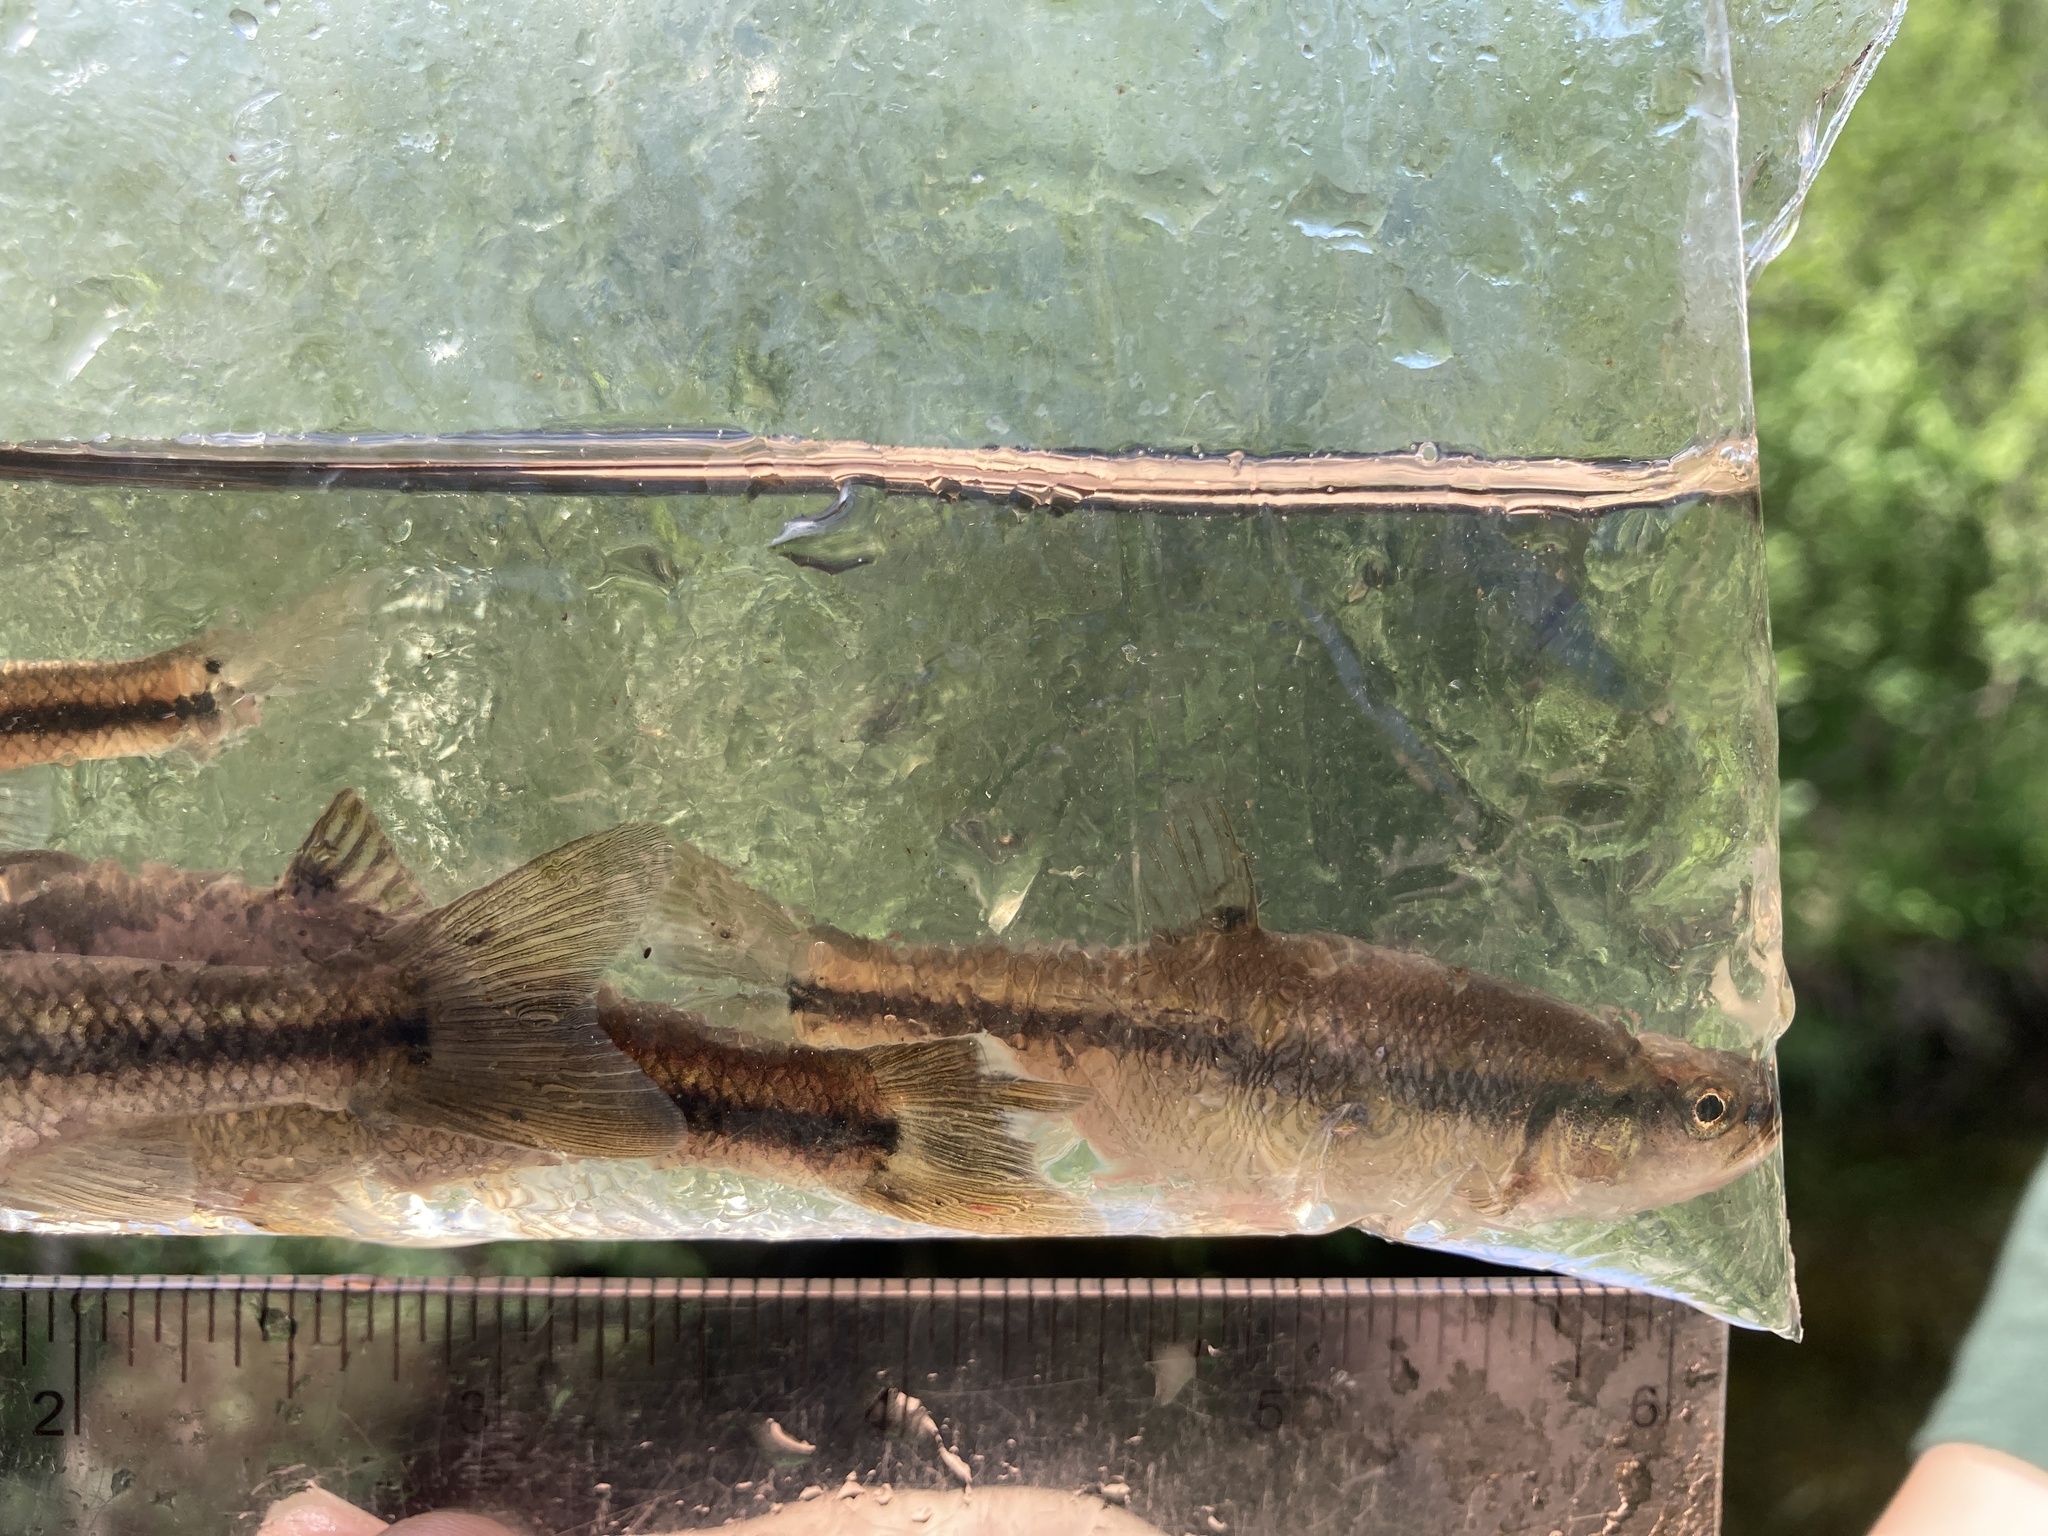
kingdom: Animalia
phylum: Chordata
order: Cypriniformes
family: Cyprinidae
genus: Semotilus
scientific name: Semotilus atromaculatus
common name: Creek chub
